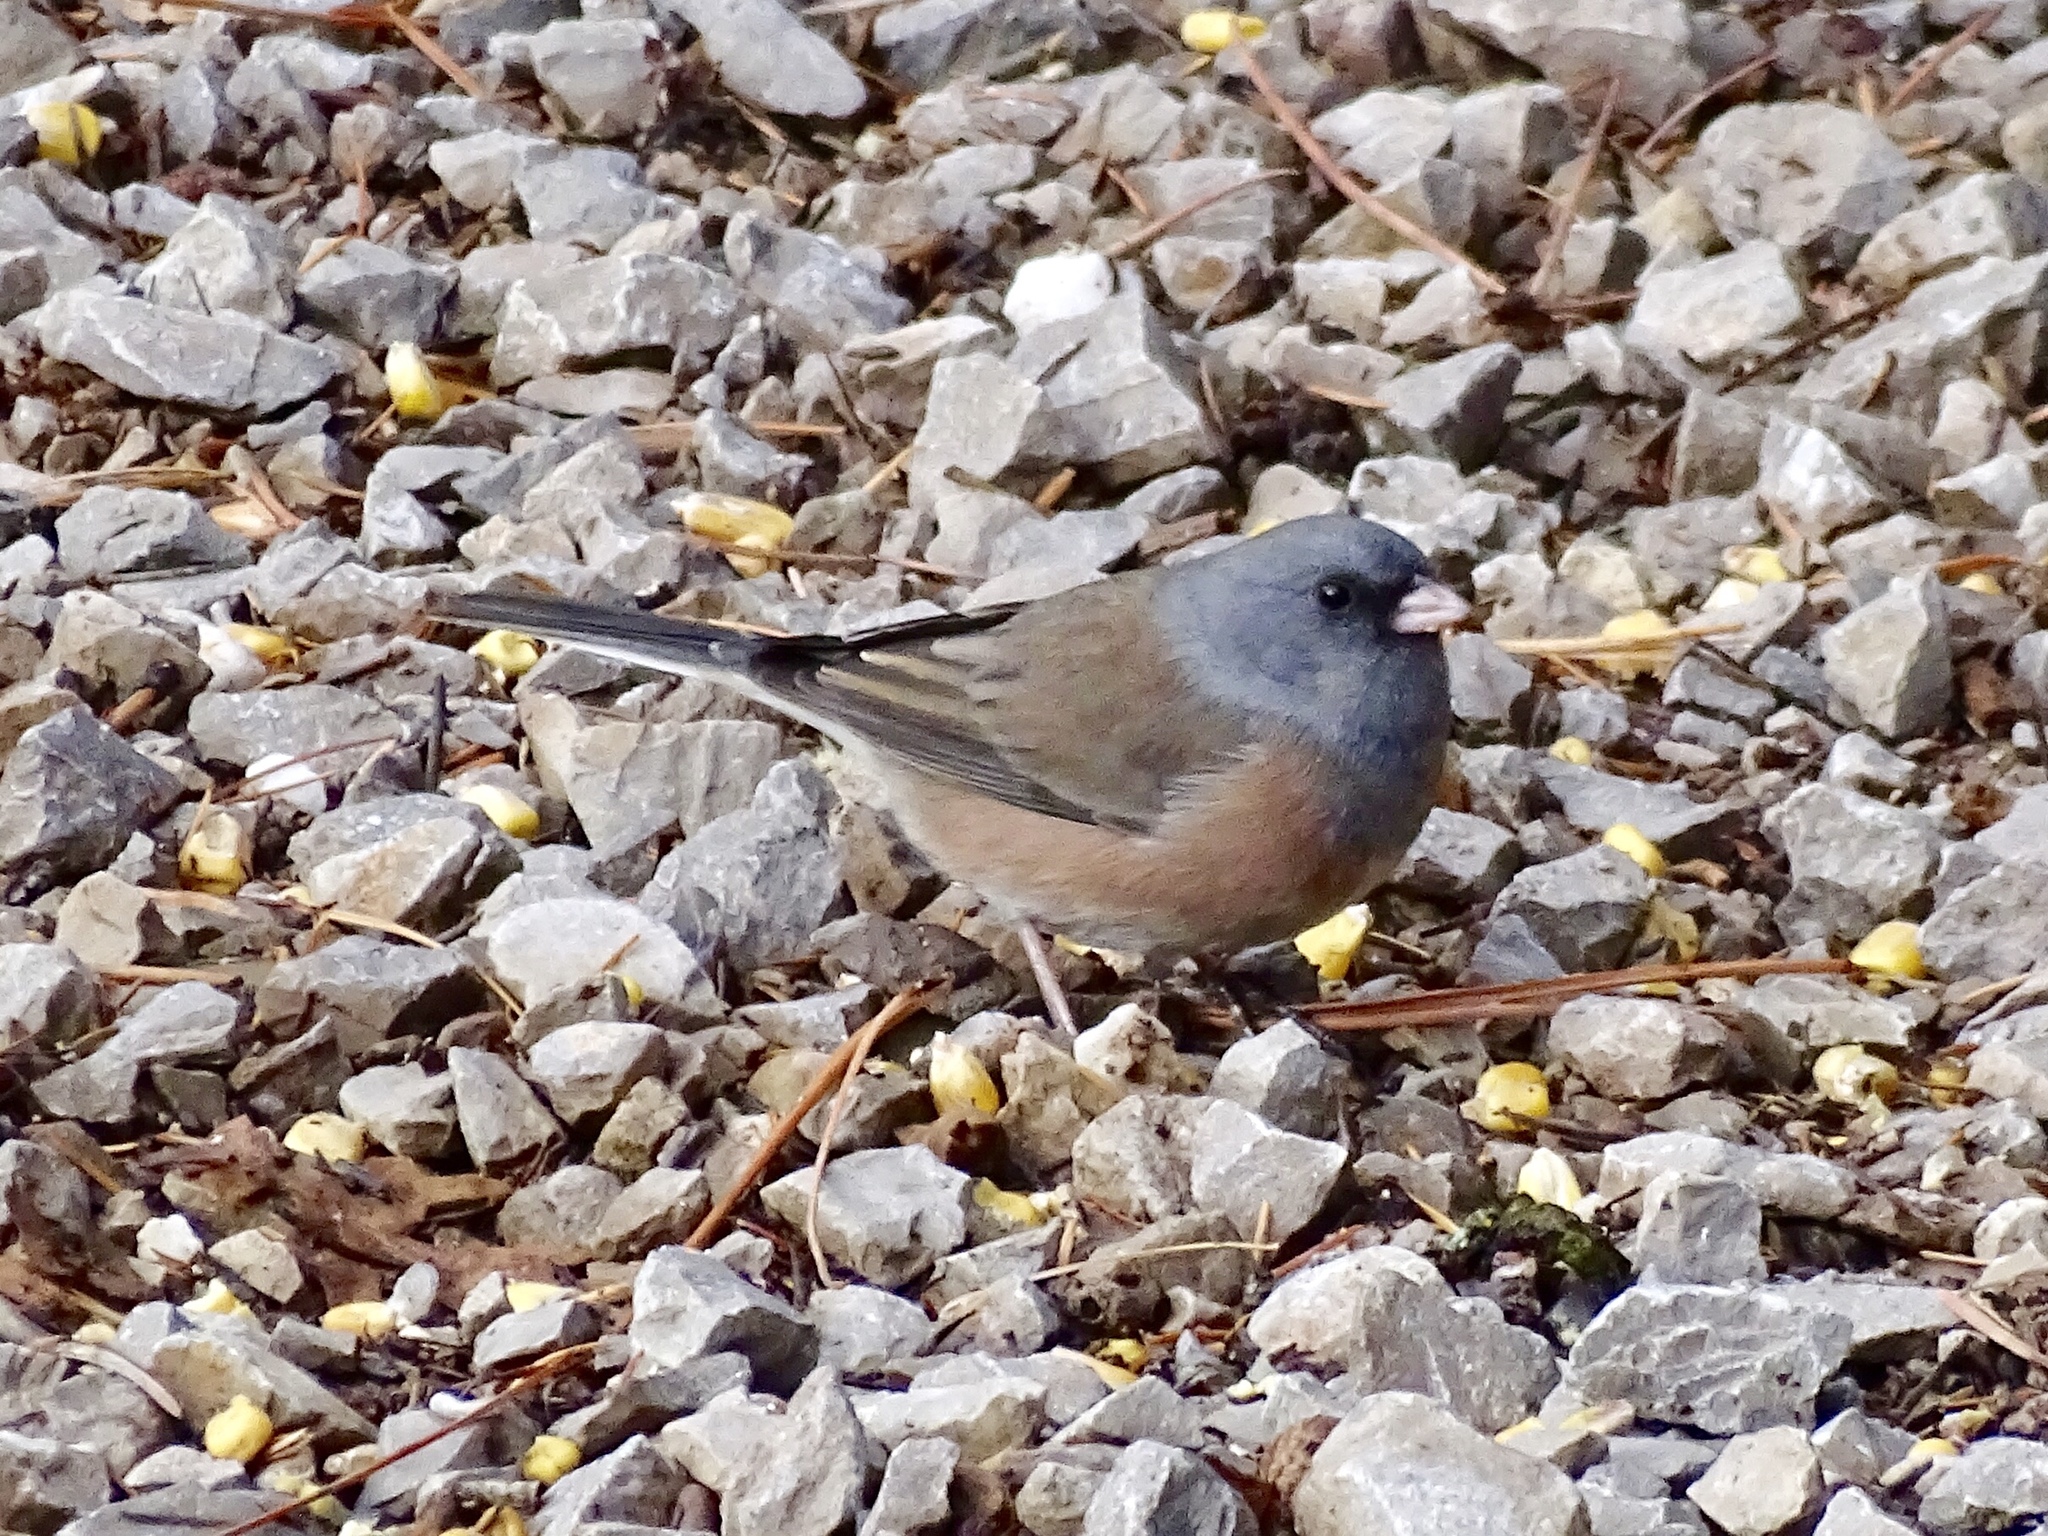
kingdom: Animalia
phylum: Chordata
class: Aves
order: Passeriformes
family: Passerellidae
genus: Junco
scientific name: Junco hyemalis
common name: Dark-eyed junco
